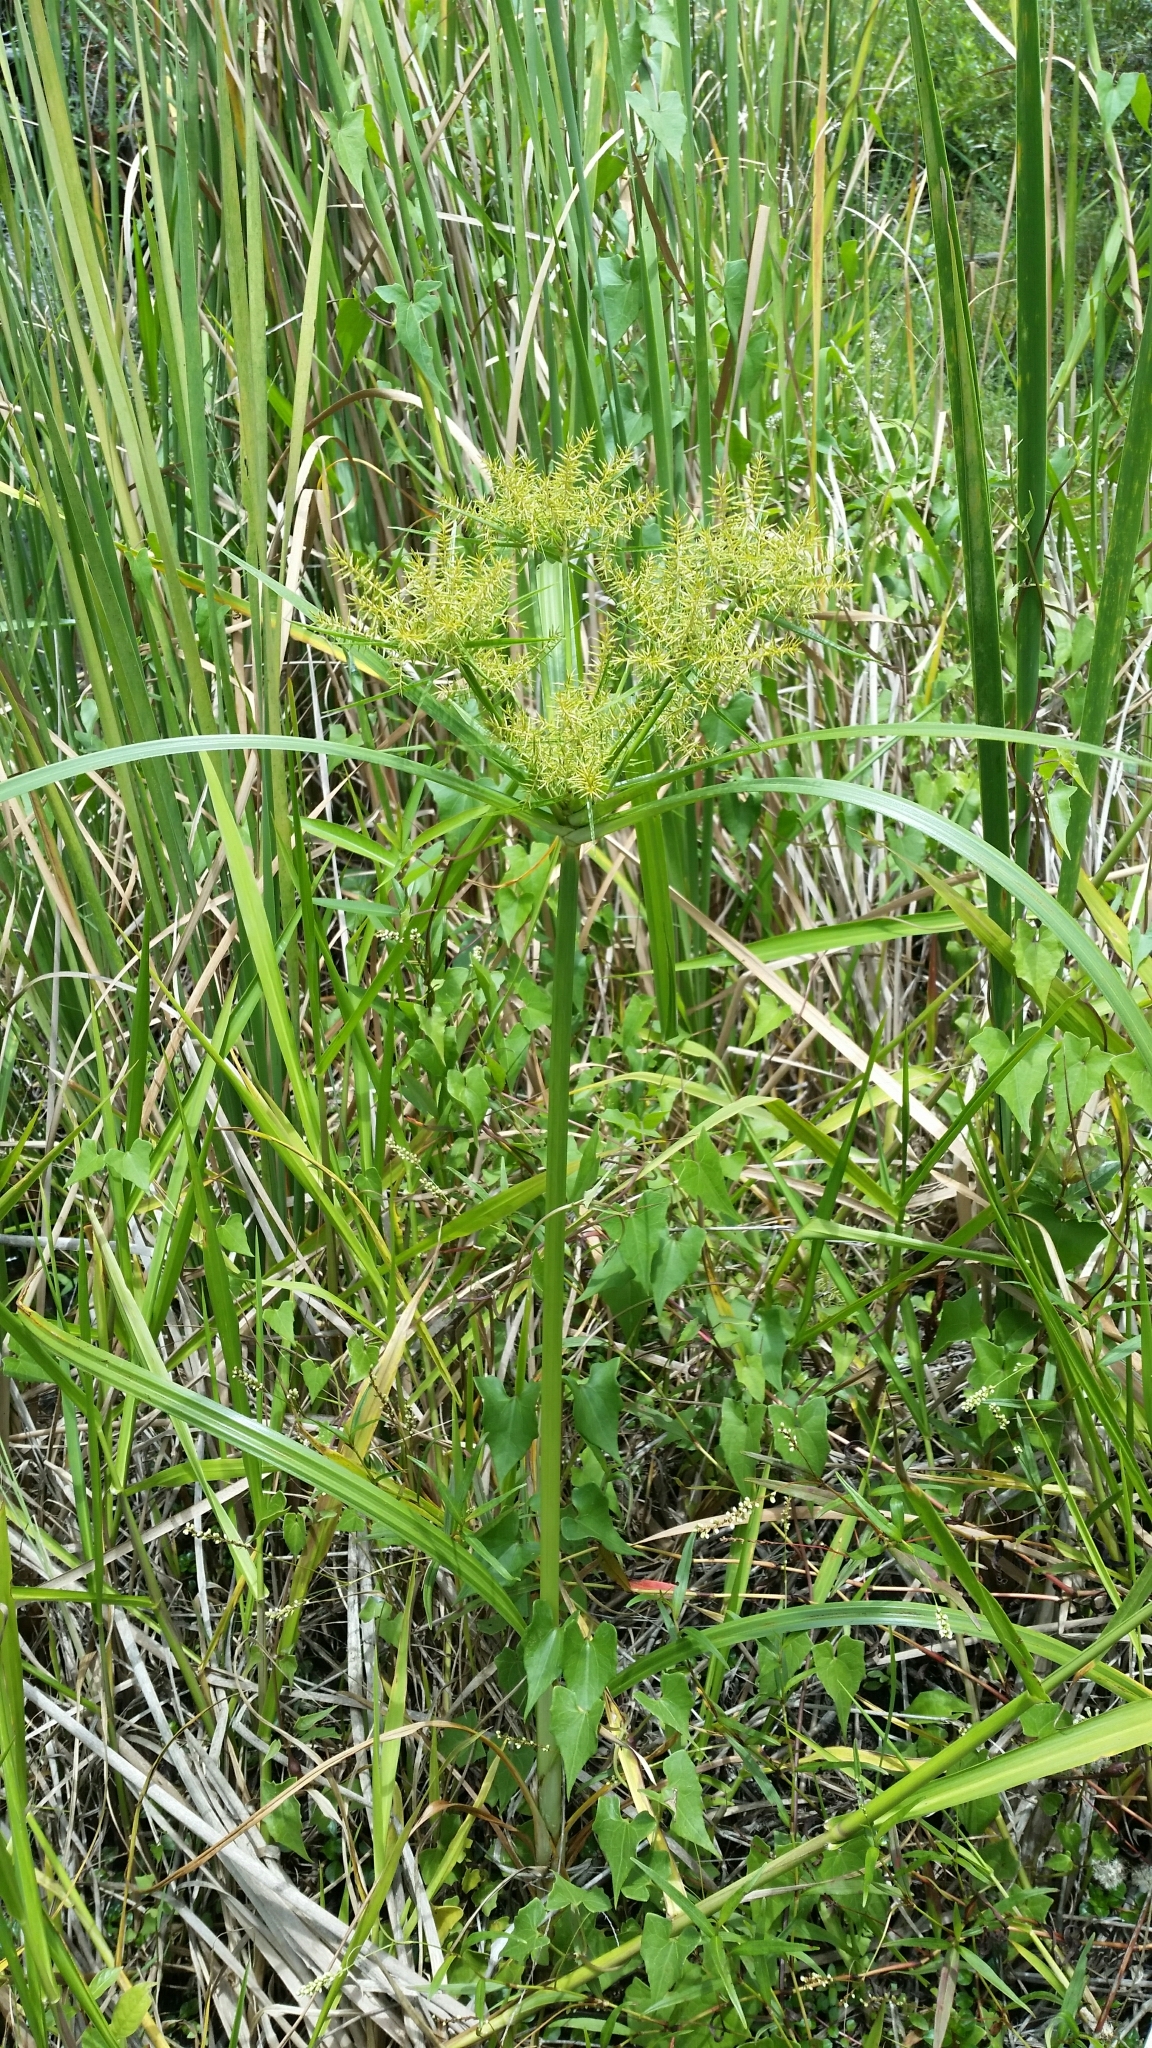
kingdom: Plantae
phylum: Tracheophyta
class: Liliopsida
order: Poales
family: Cyperaceae
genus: Cyperus
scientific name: Cyperus odoratus
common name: Fragrant flatsedge
